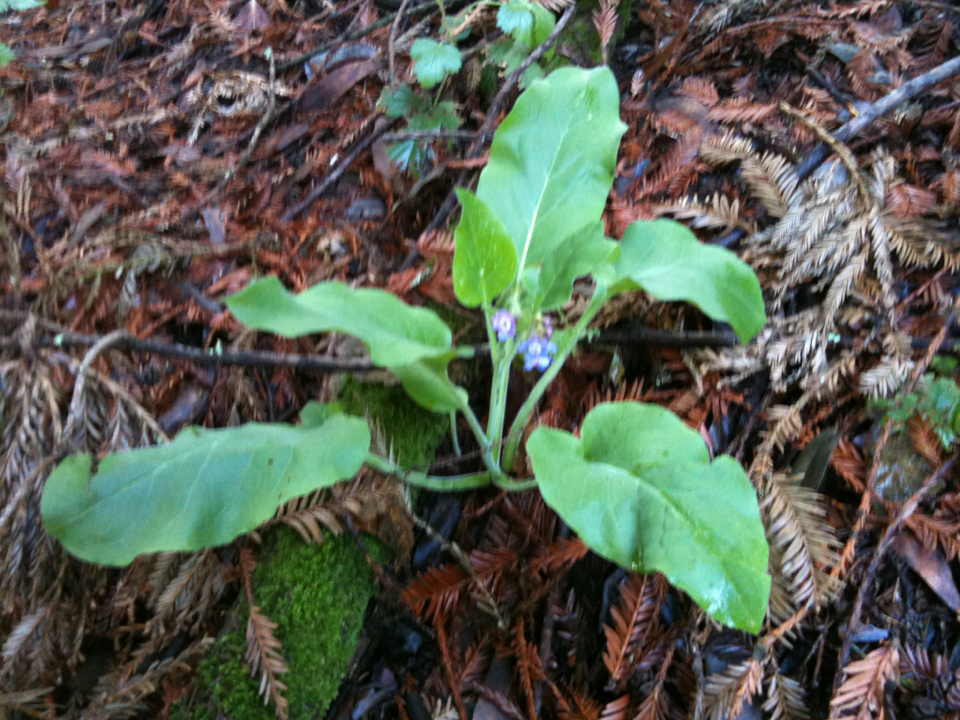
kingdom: Plantae
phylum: Tracheophyta
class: Magnoliopsida
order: Boraginales
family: Boraginaceae
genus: Adelinia
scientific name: Adelinia grande
